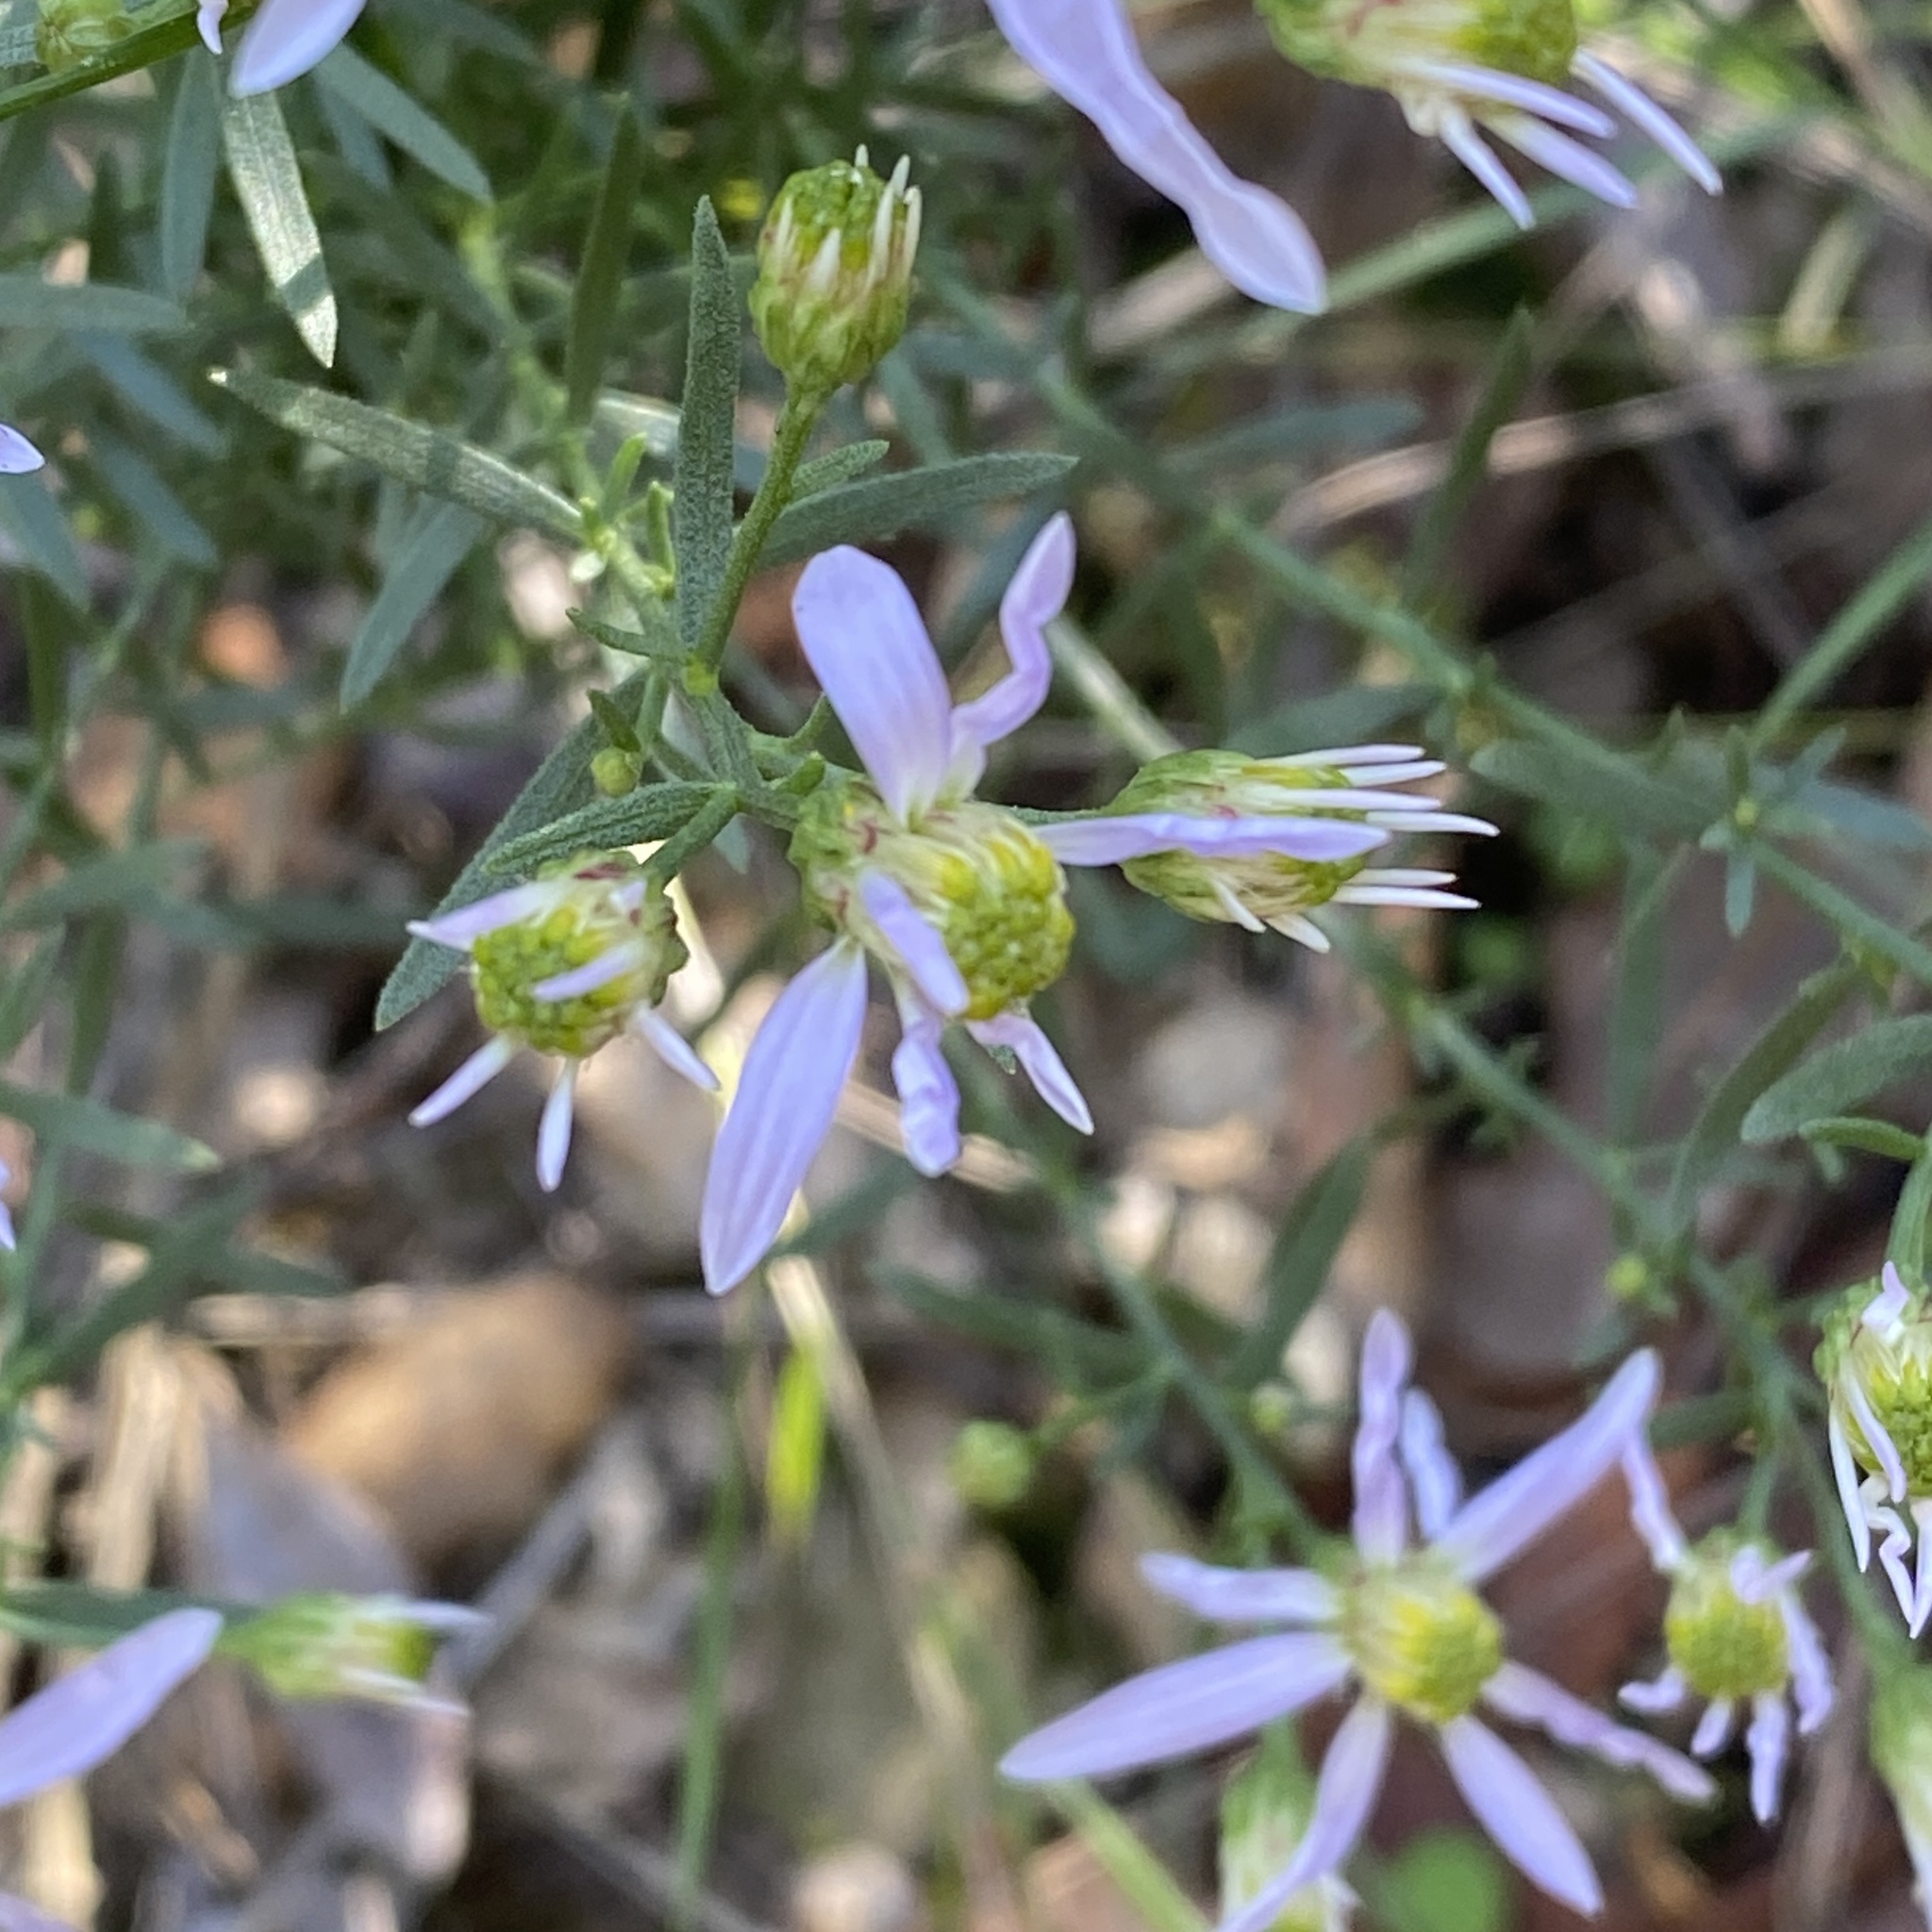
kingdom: Plantae
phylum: Tracheophyta
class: Magnoliopsida
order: Asterales
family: Asteraceae
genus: Galatella
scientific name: Galatella sedifolia
